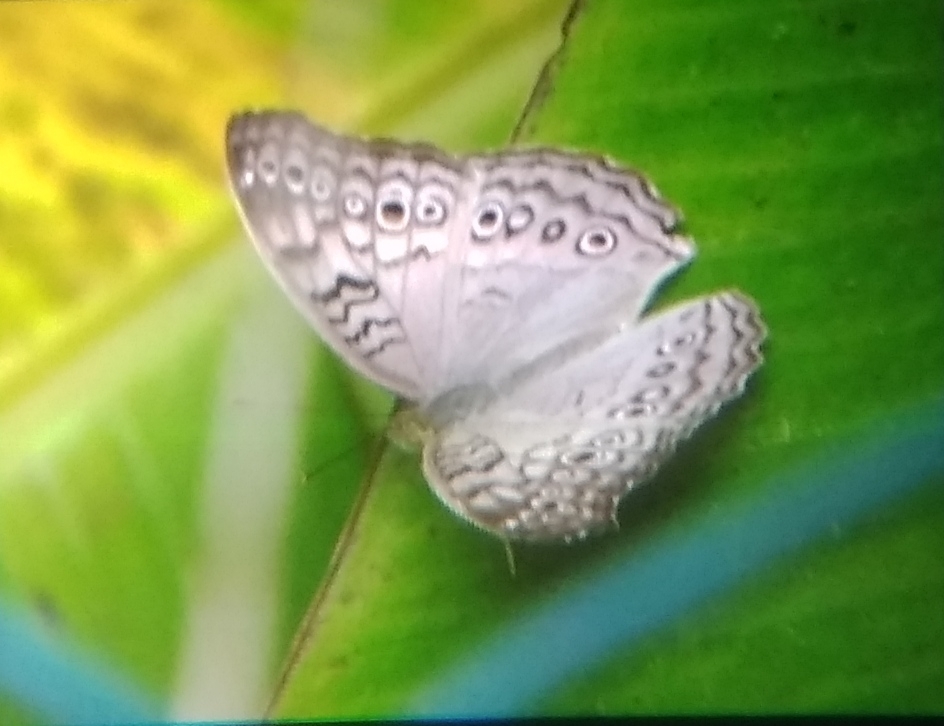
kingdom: Animalia
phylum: Arthropoda
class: Insecta
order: Lepidoptera
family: Nymphalidae
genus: Junonia
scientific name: Junonia atlites
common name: Grey pansy
